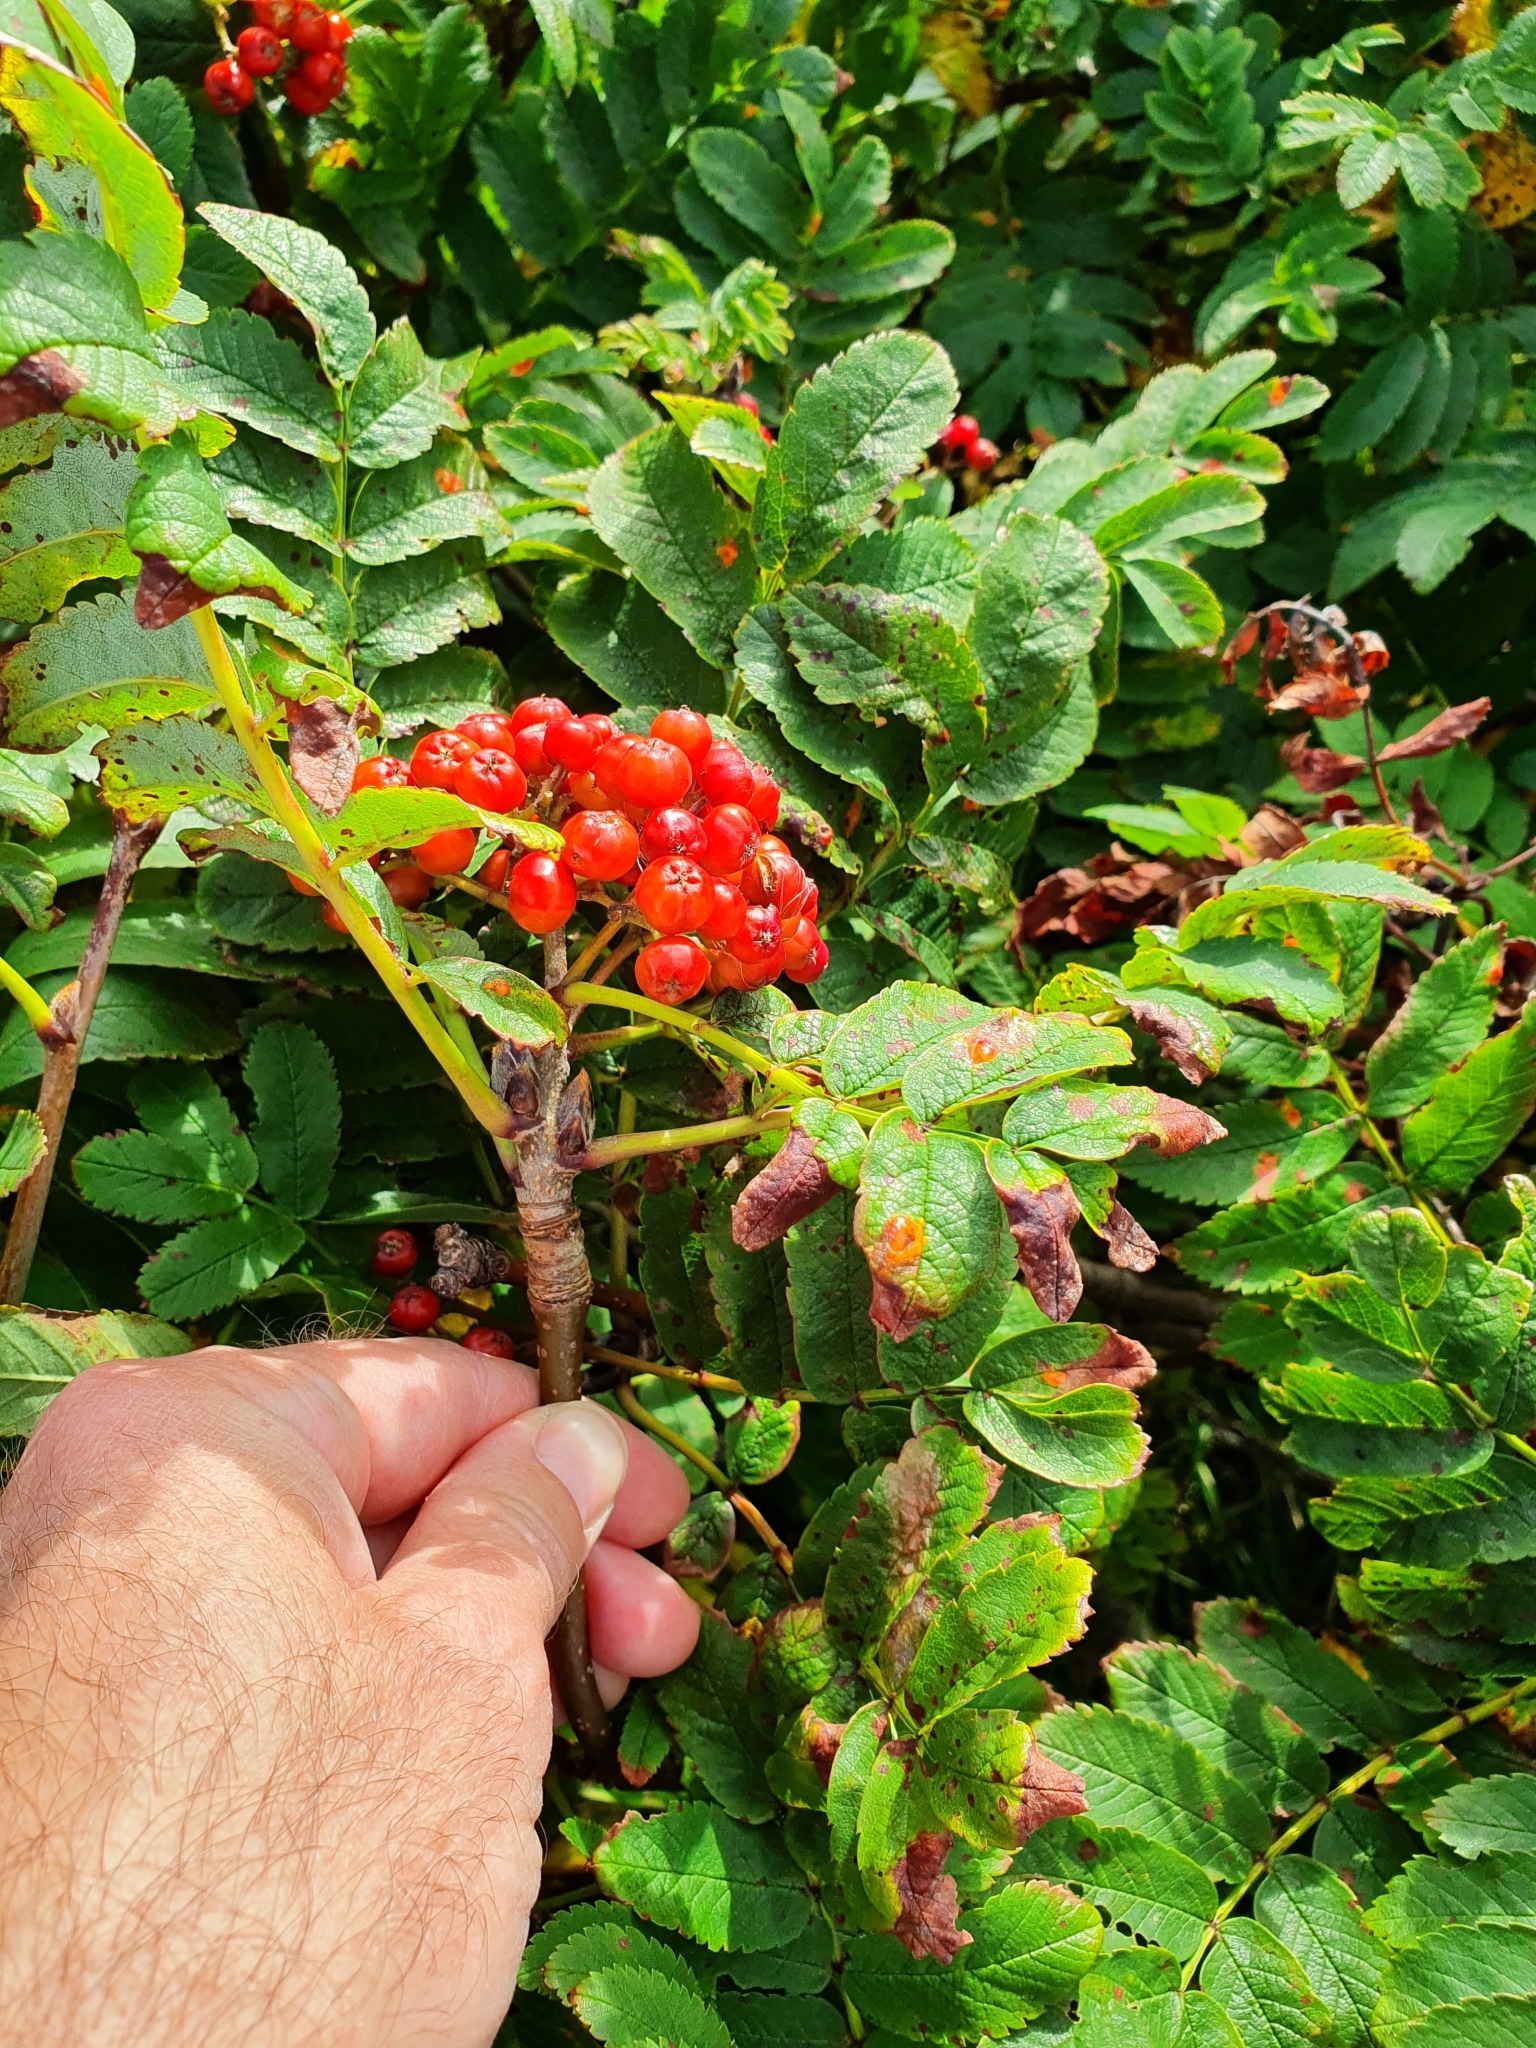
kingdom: Plantae
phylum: Tracheophyta
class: Magnoliopsida
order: Rosales
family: Rosaceae
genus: Sorbus
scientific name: Sorbus aucuparia
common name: Rowan
